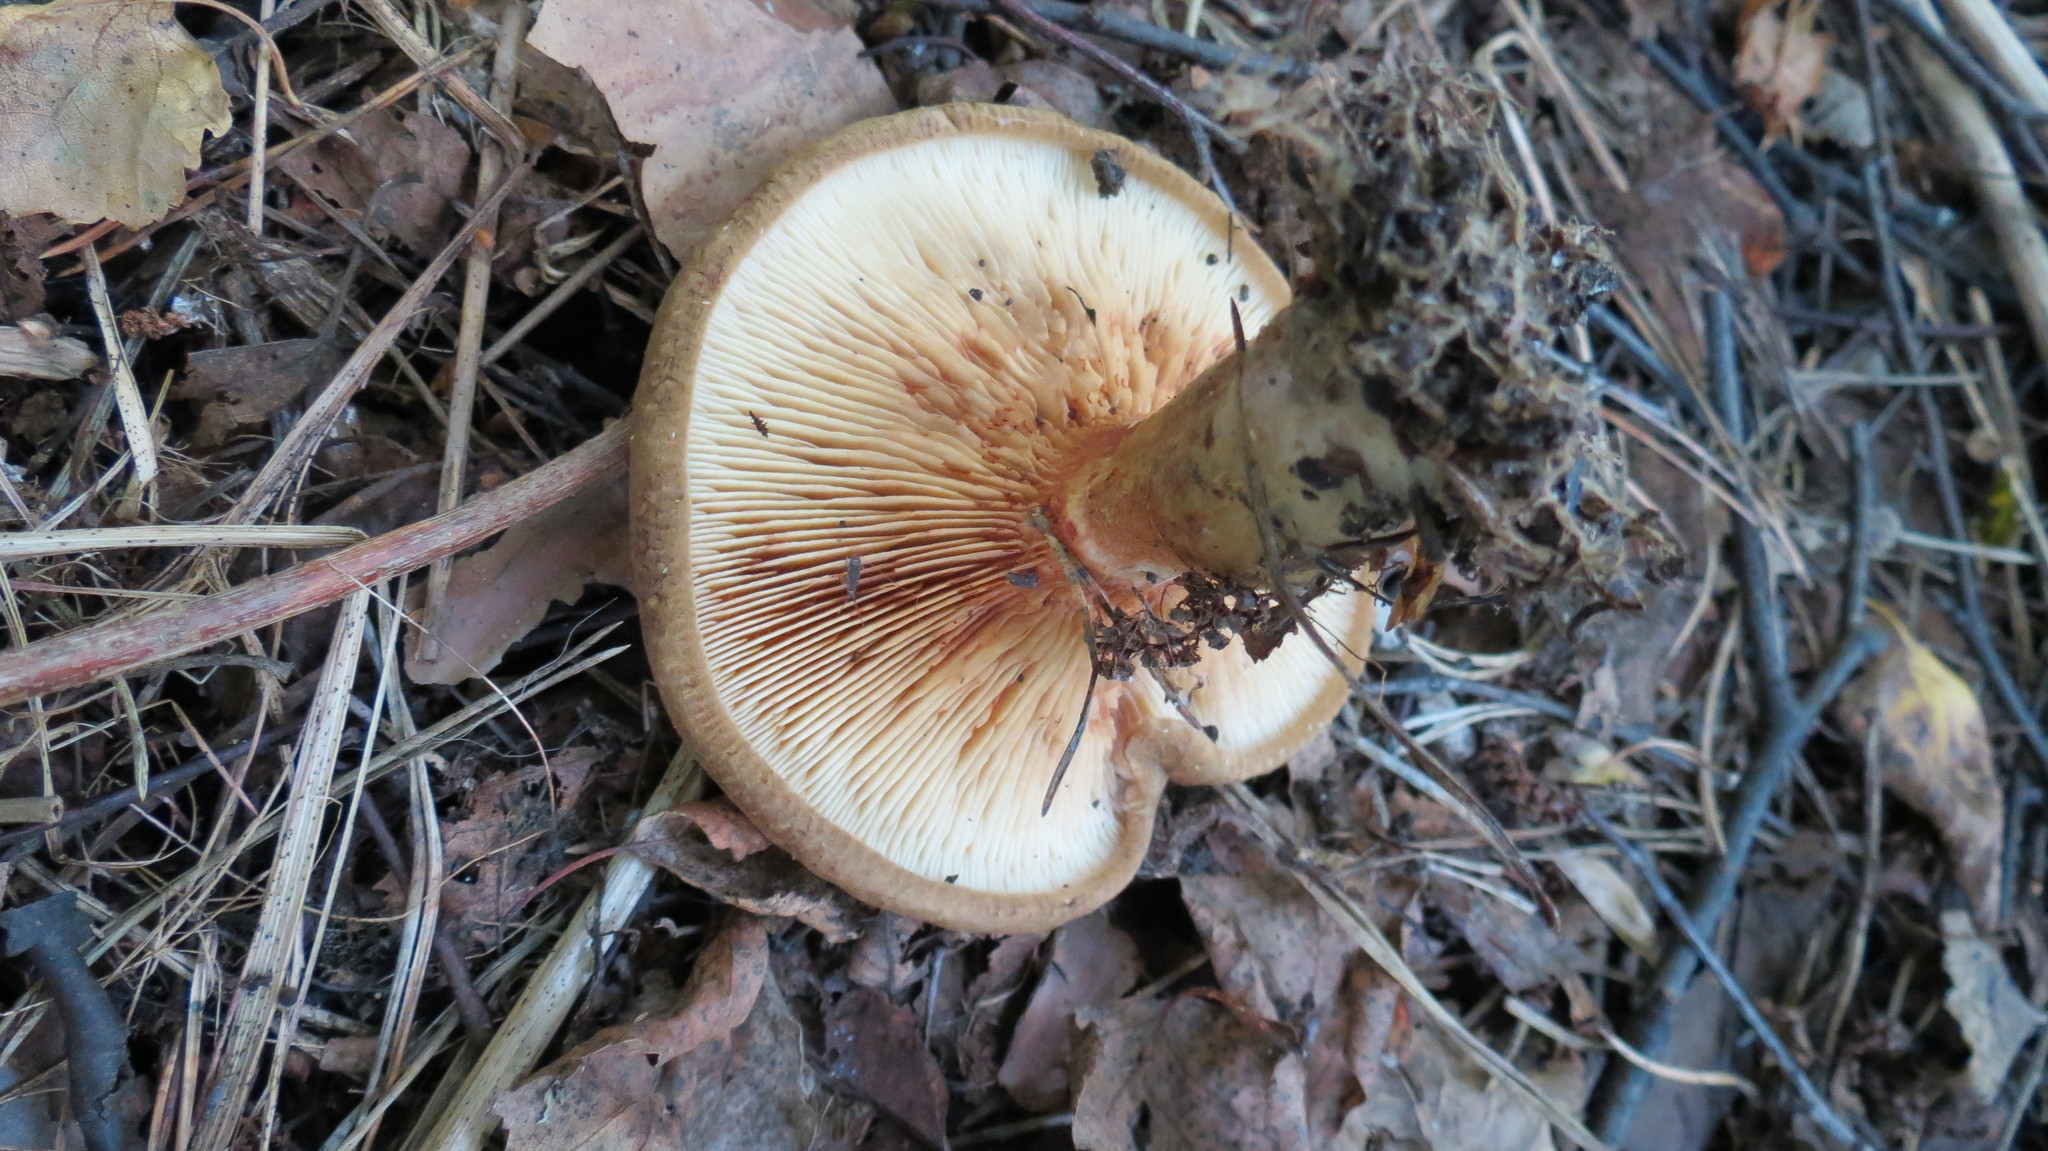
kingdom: Fungi
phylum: Basidiomycota
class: Agaricomycetes
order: Boletales
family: Paxillaceae
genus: Paxillus
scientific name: Paxillus involutus
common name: Brown roll rim
